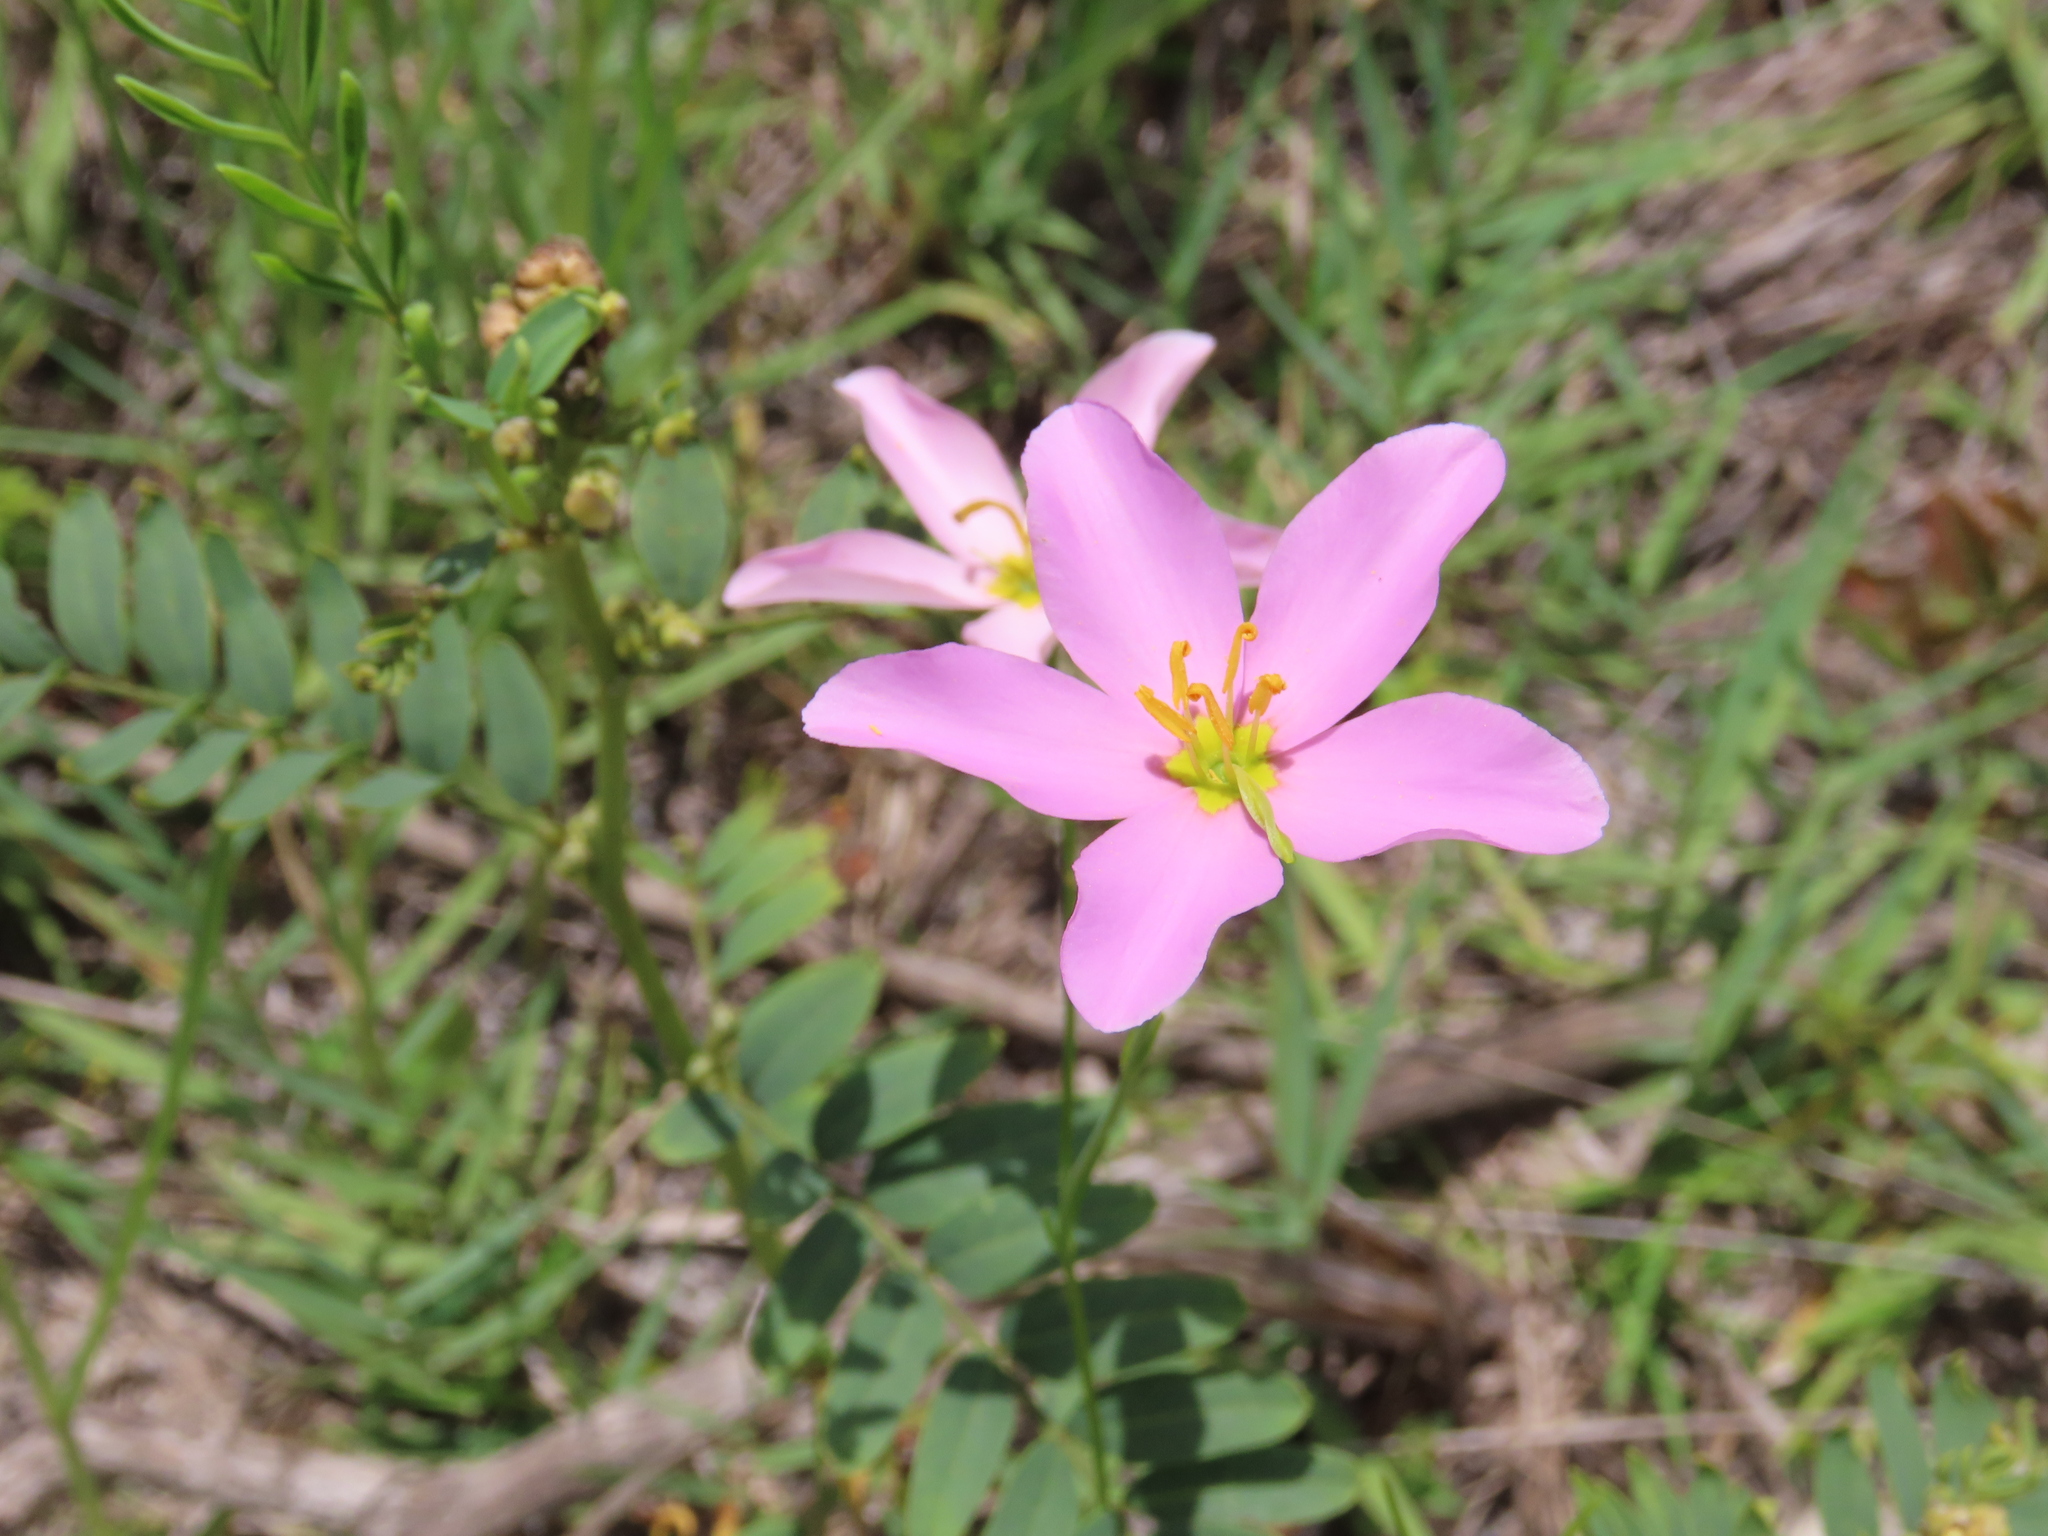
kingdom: Plantae
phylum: Tracheophyta
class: Magnoliopsida
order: Gentianales
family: Gentianaceae
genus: Sabatia
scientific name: Sabatia grandiflora
